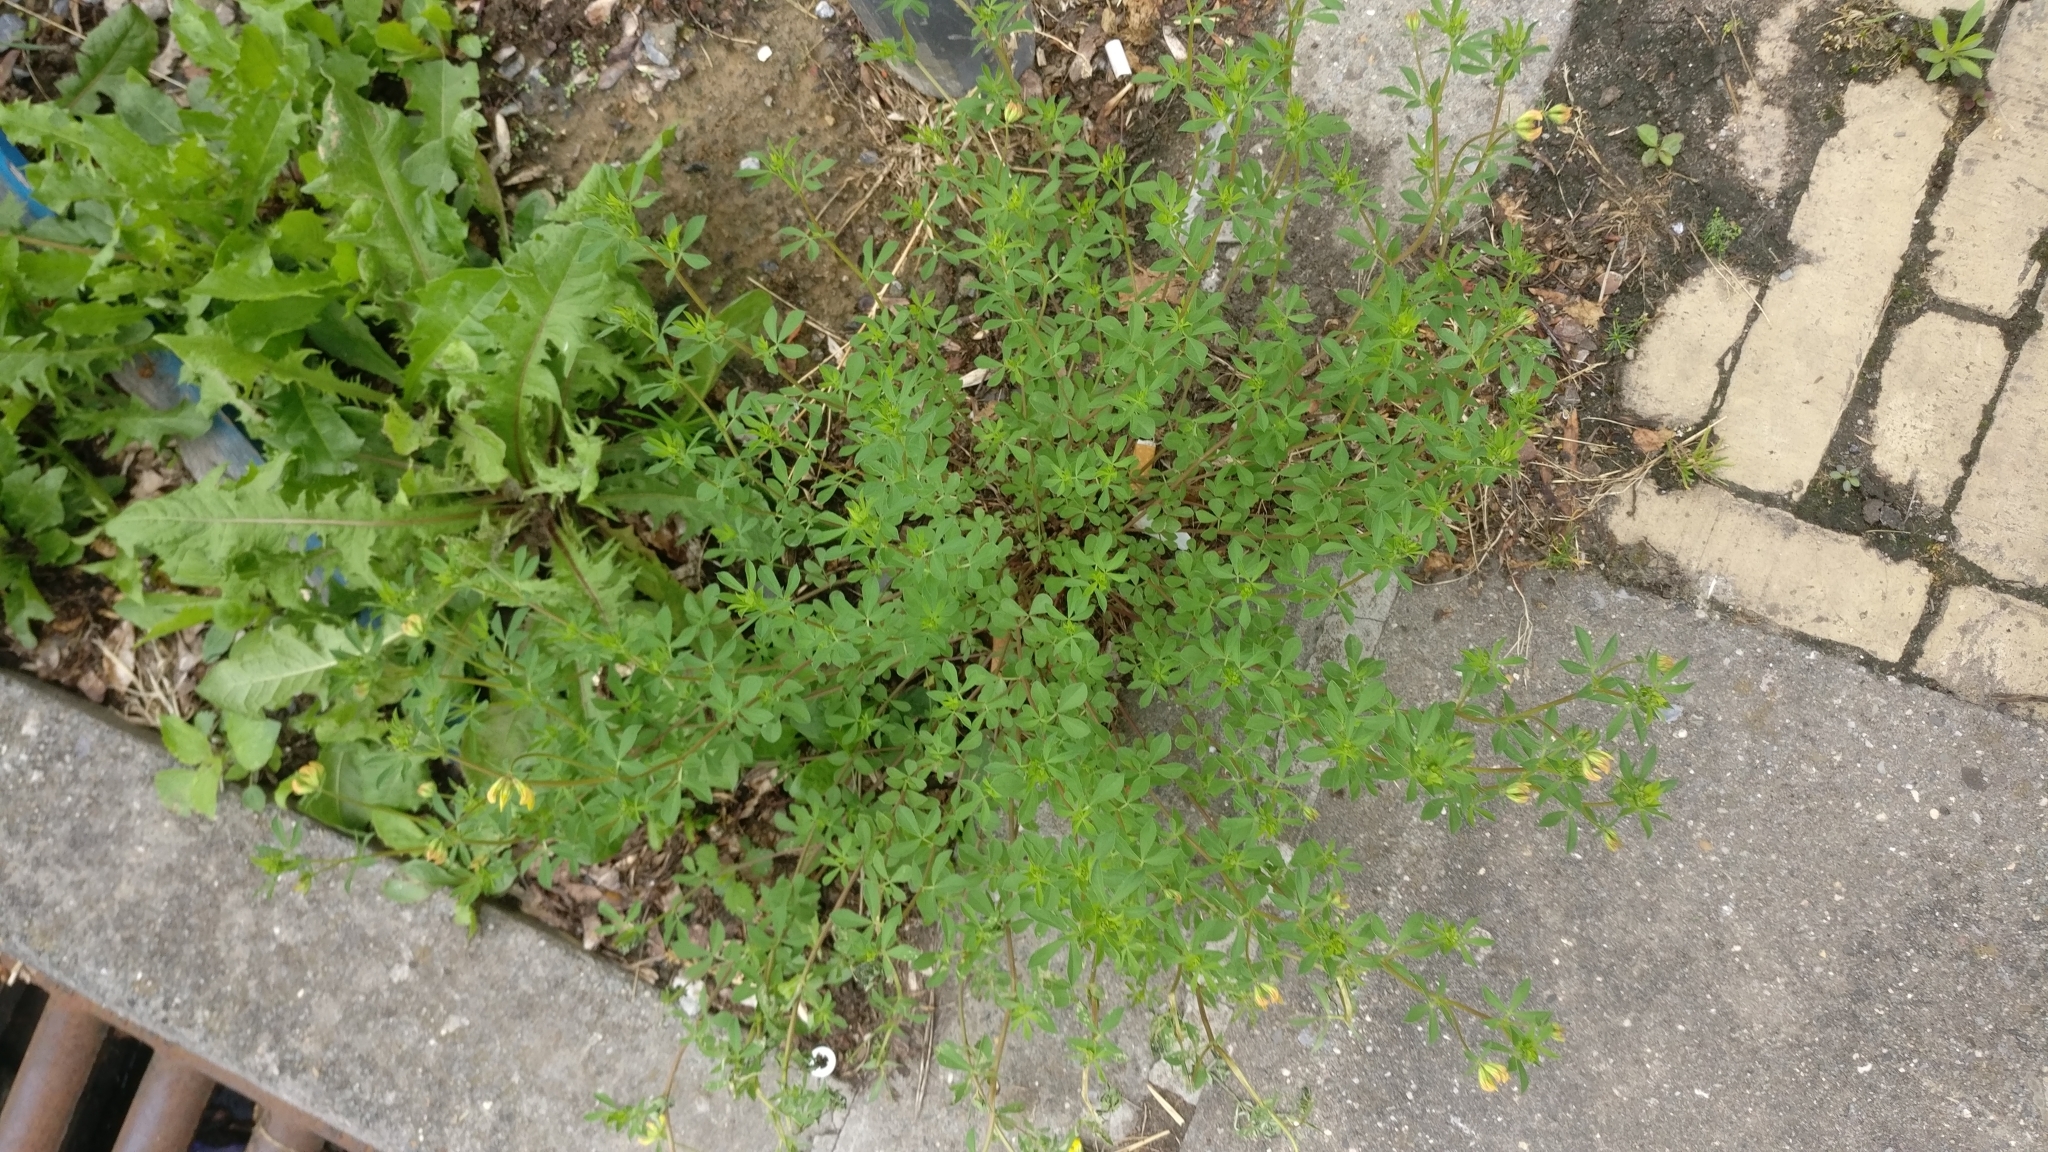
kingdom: Plantae
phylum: Tracheophyta
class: Magnoliopsida
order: Fabales
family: Fabaceae
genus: Lotus
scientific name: Lotus corniculatus
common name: Common bird's-foot-trefoil
